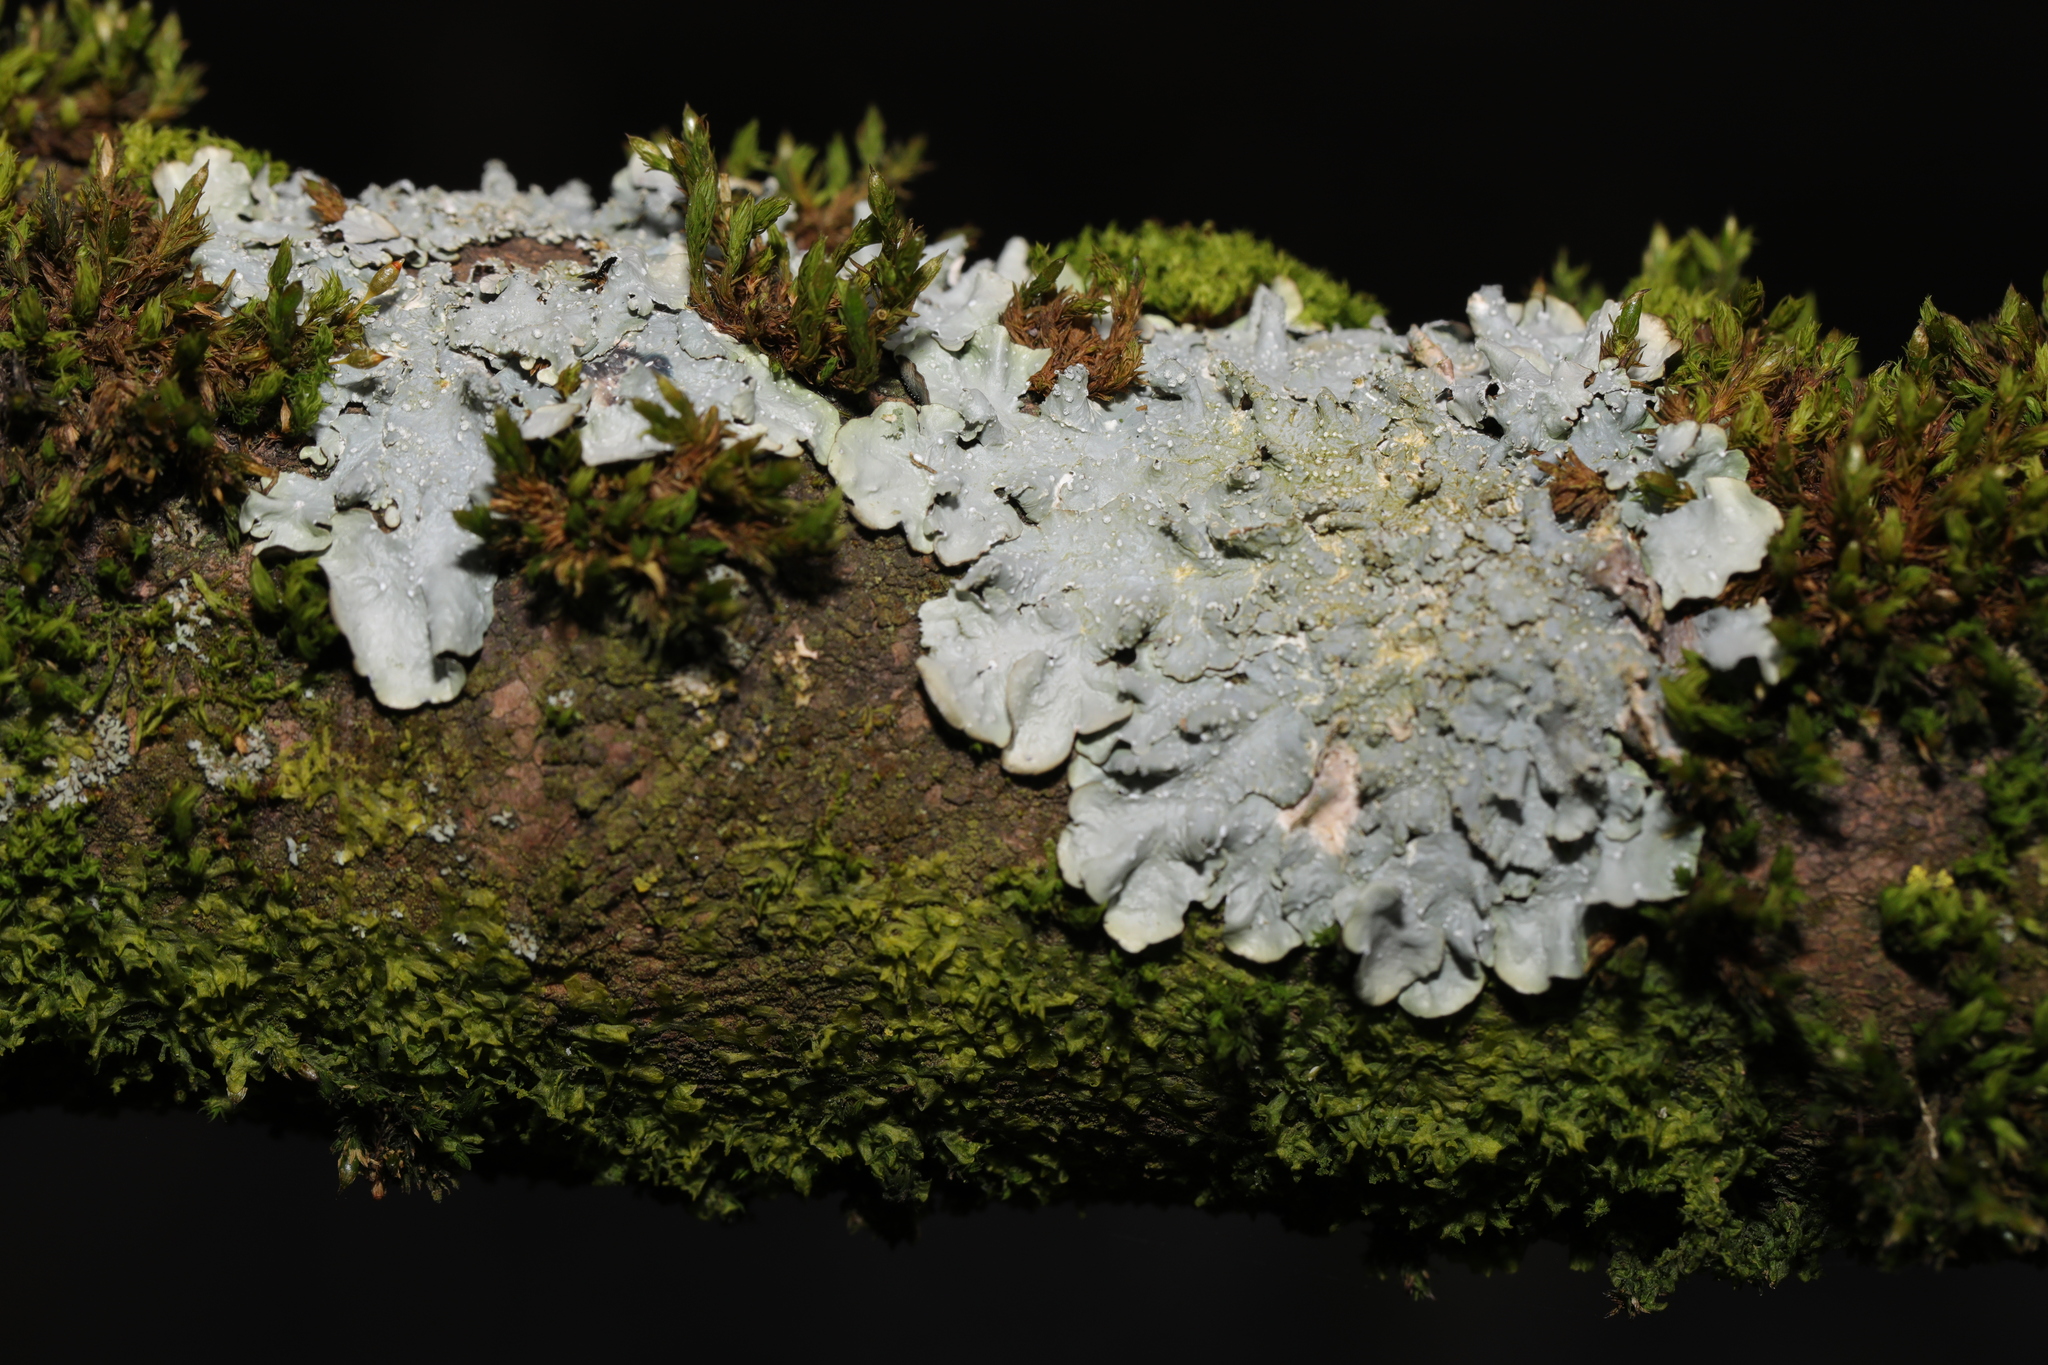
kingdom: Fungi
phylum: Ascomycota
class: Lecanoromycetes
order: Lecanorales
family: Parmeliaceae
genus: Punctelia
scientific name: Punctelia subrudecta
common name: Powdered speckled shield lichen
